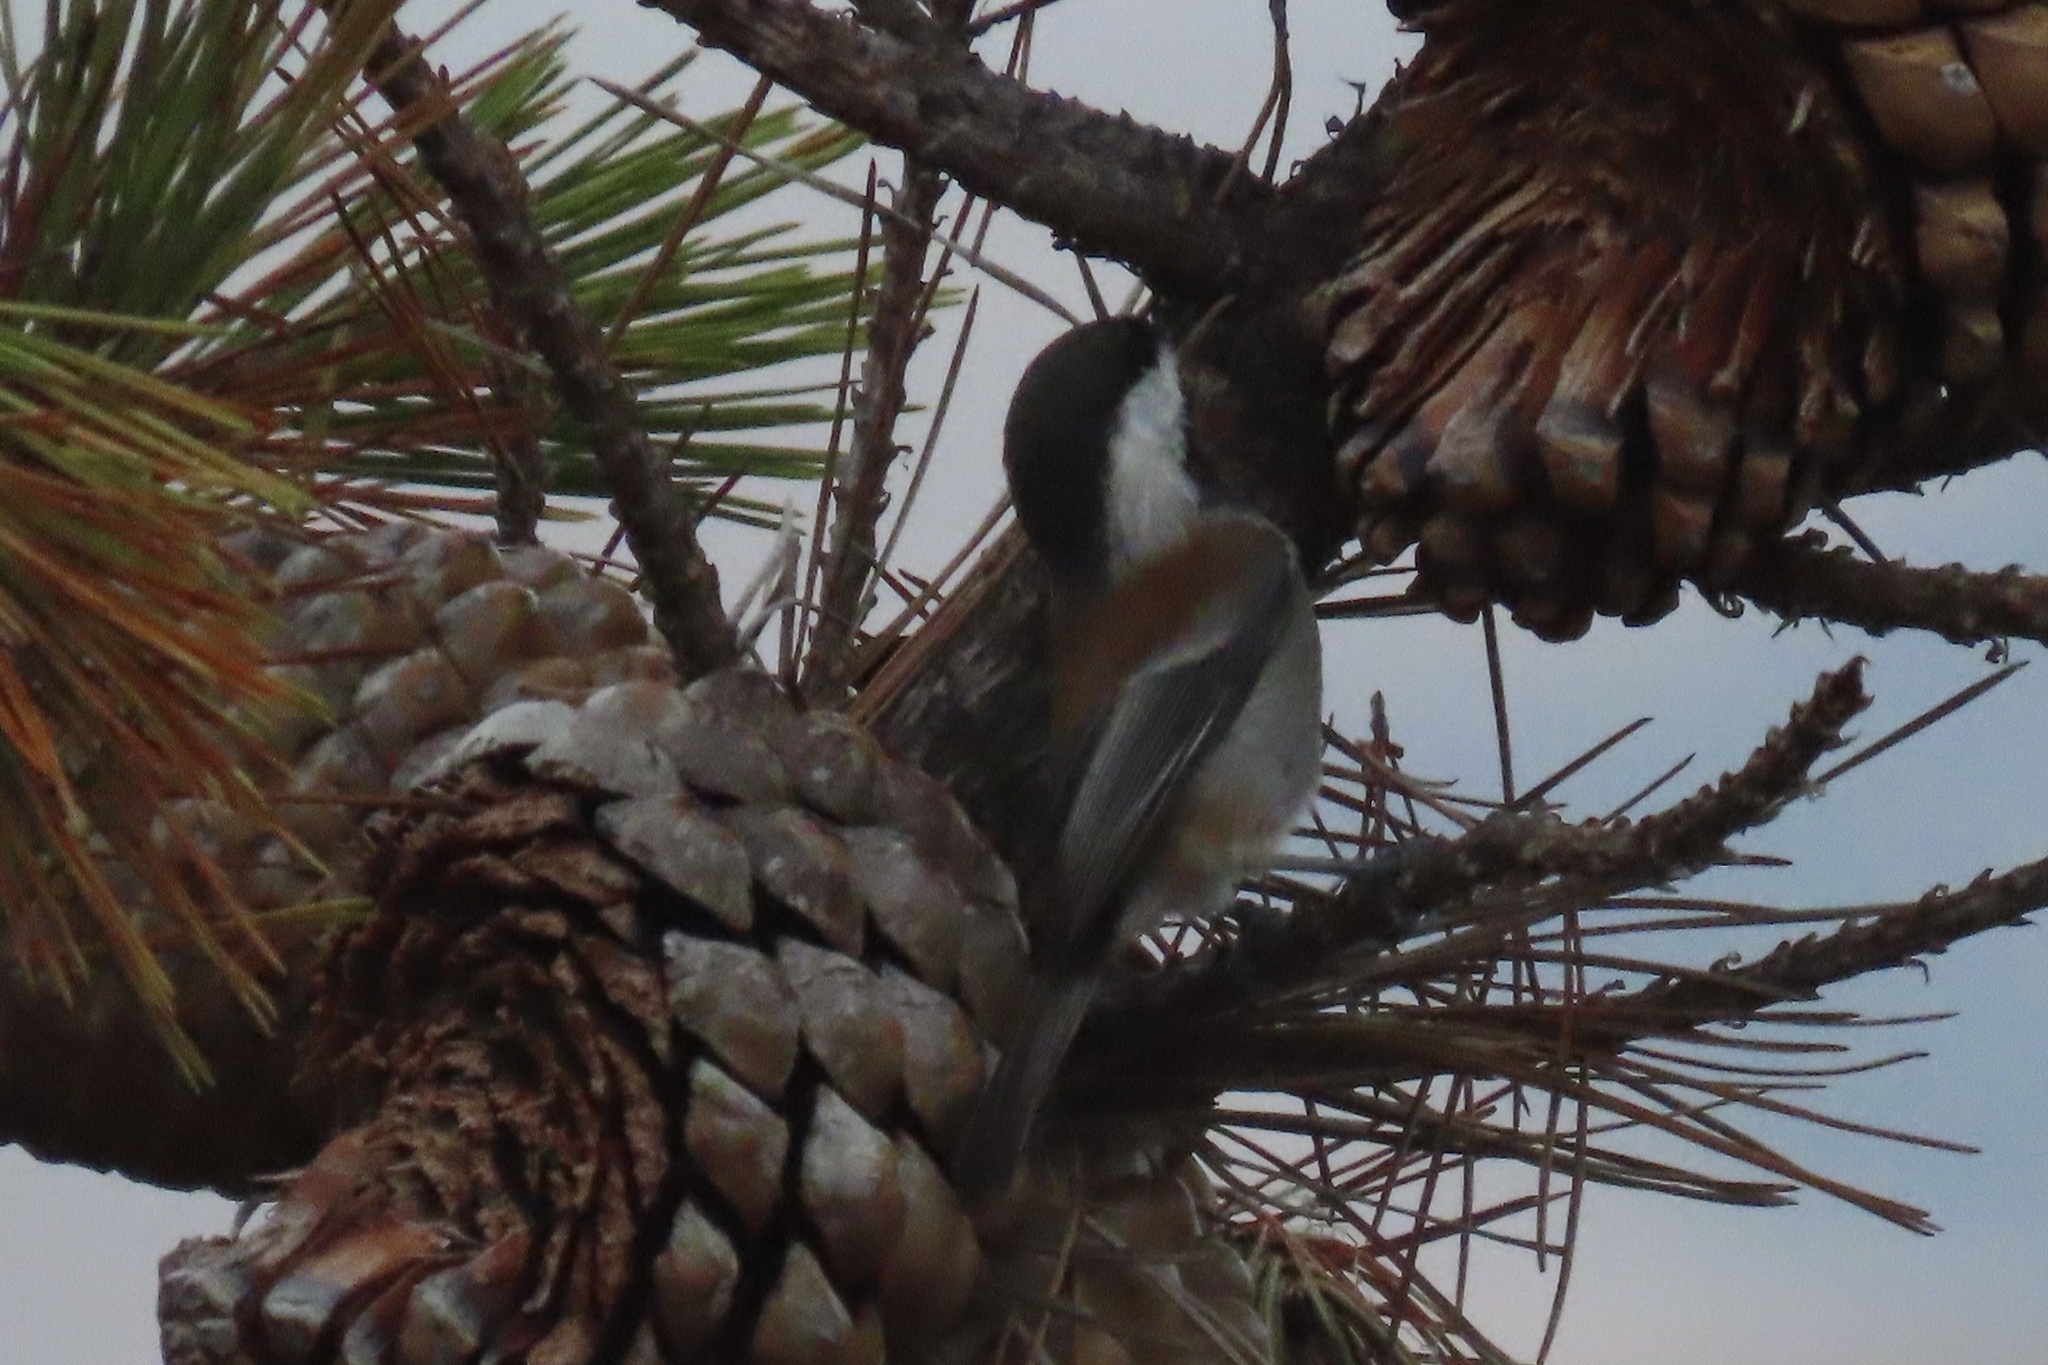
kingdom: Animalia
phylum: Chordata
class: Aves
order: Passeriformes
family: Paridae
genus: Poecile
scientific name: Poecile rufescens
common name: Chestnut-backed chickadee
